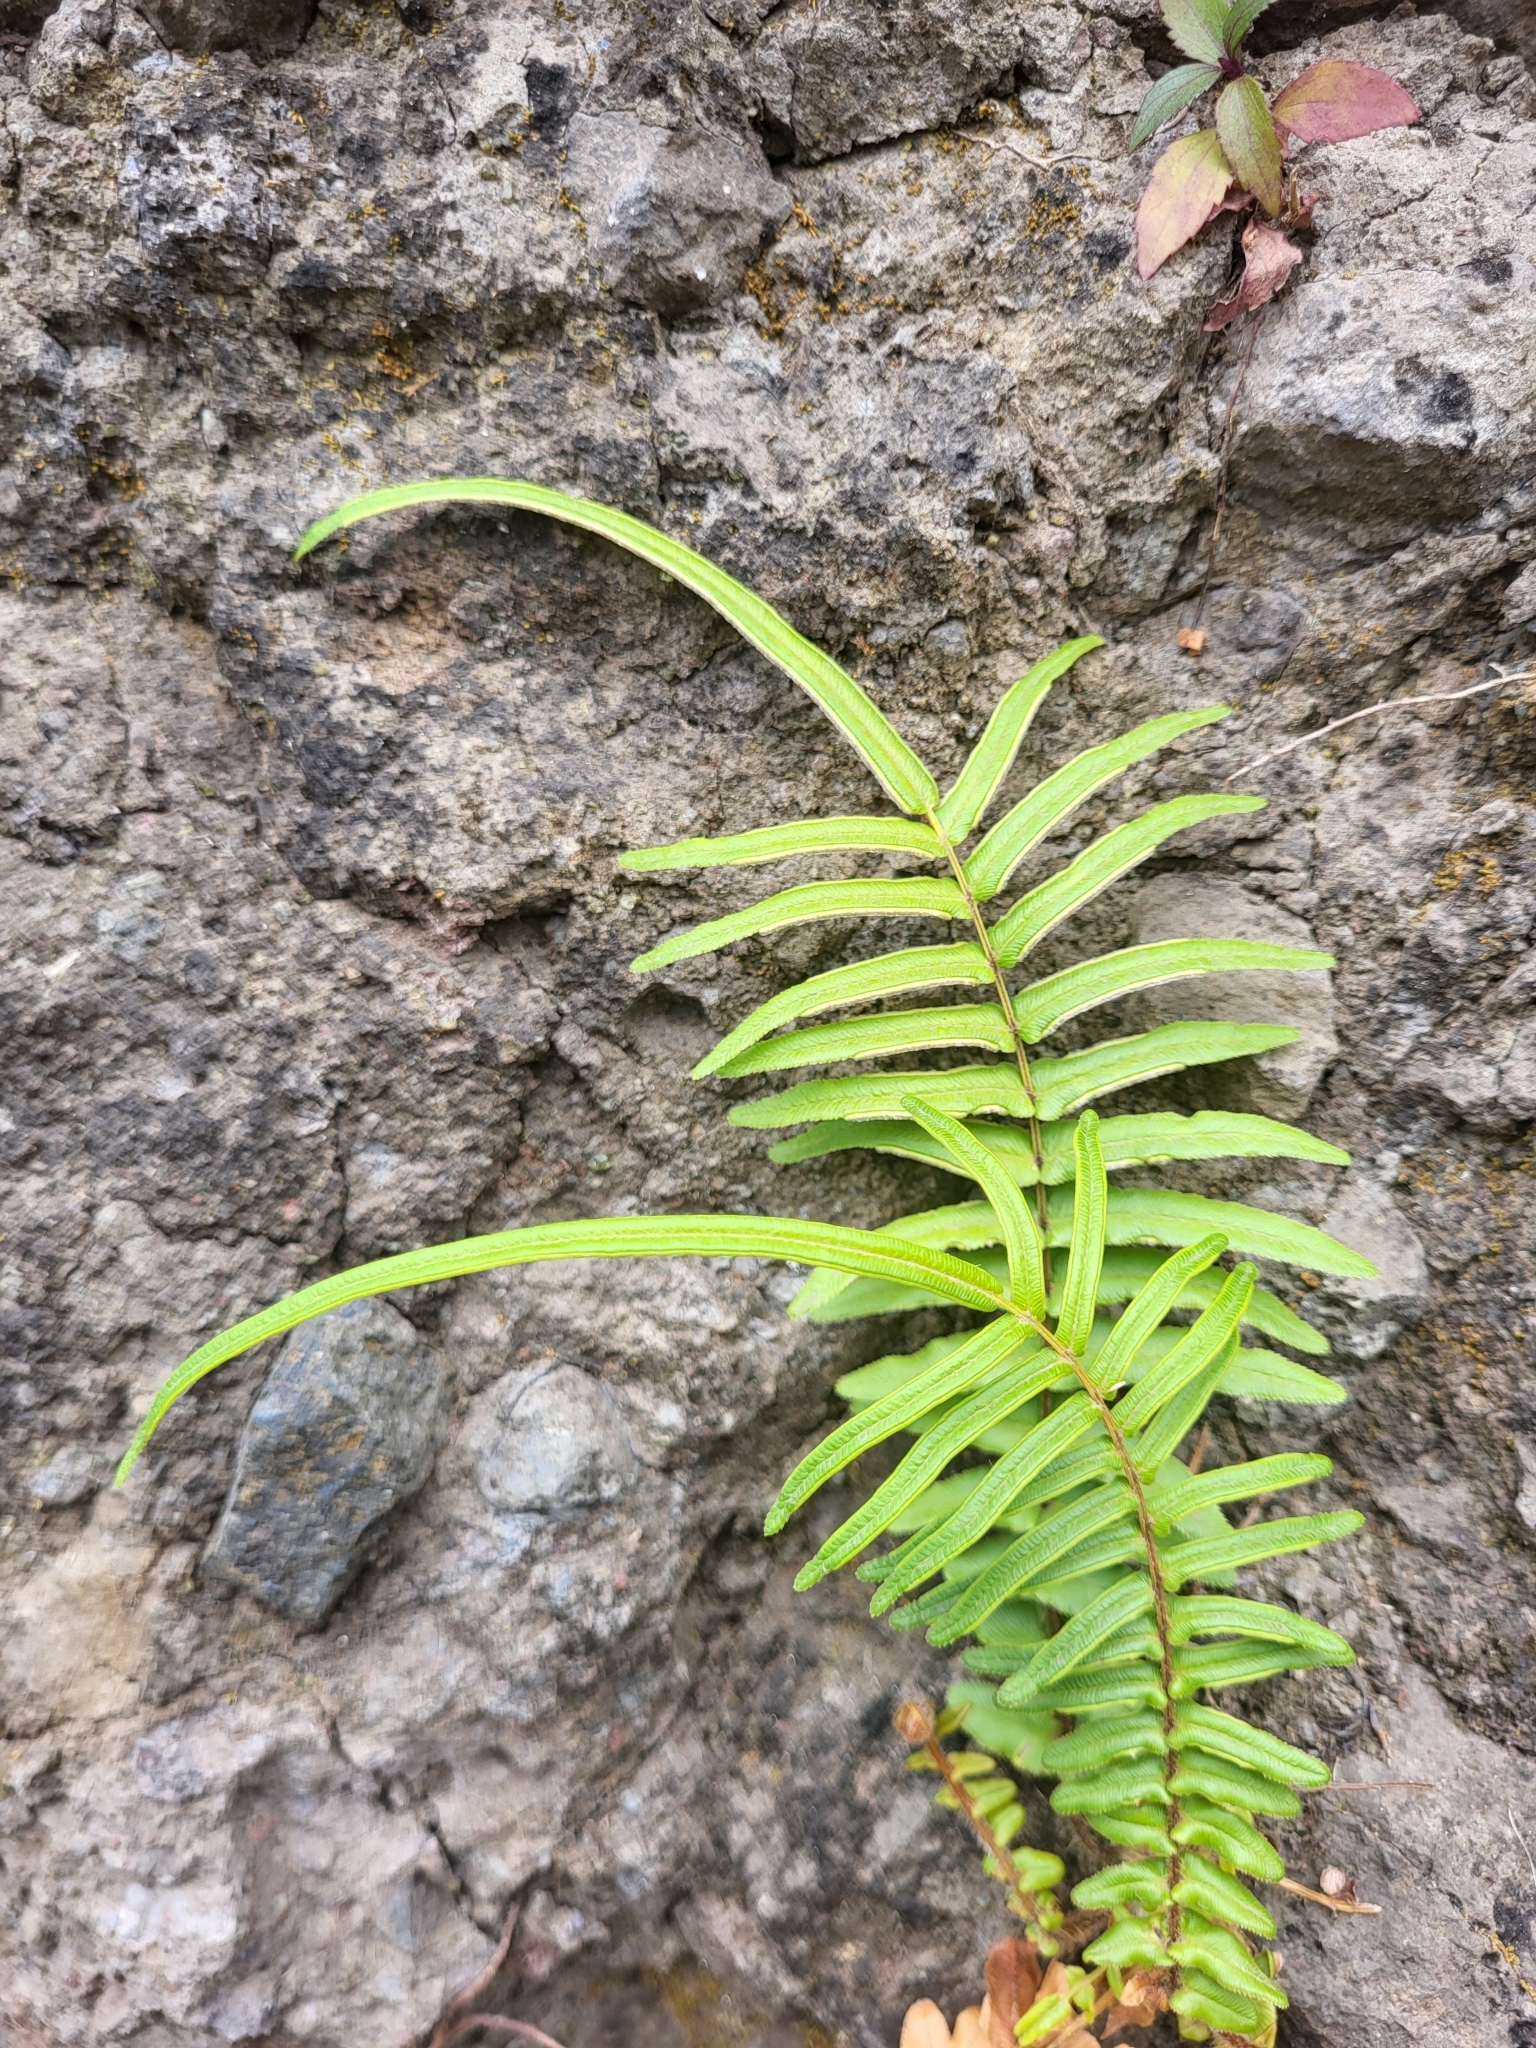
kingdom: Plantae
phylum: Tracheophyta
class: Polypodiopsida
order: Polypodiales
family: Pteridaceae
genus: Pteris
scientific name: Pteris vittata
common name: Ladder brake
